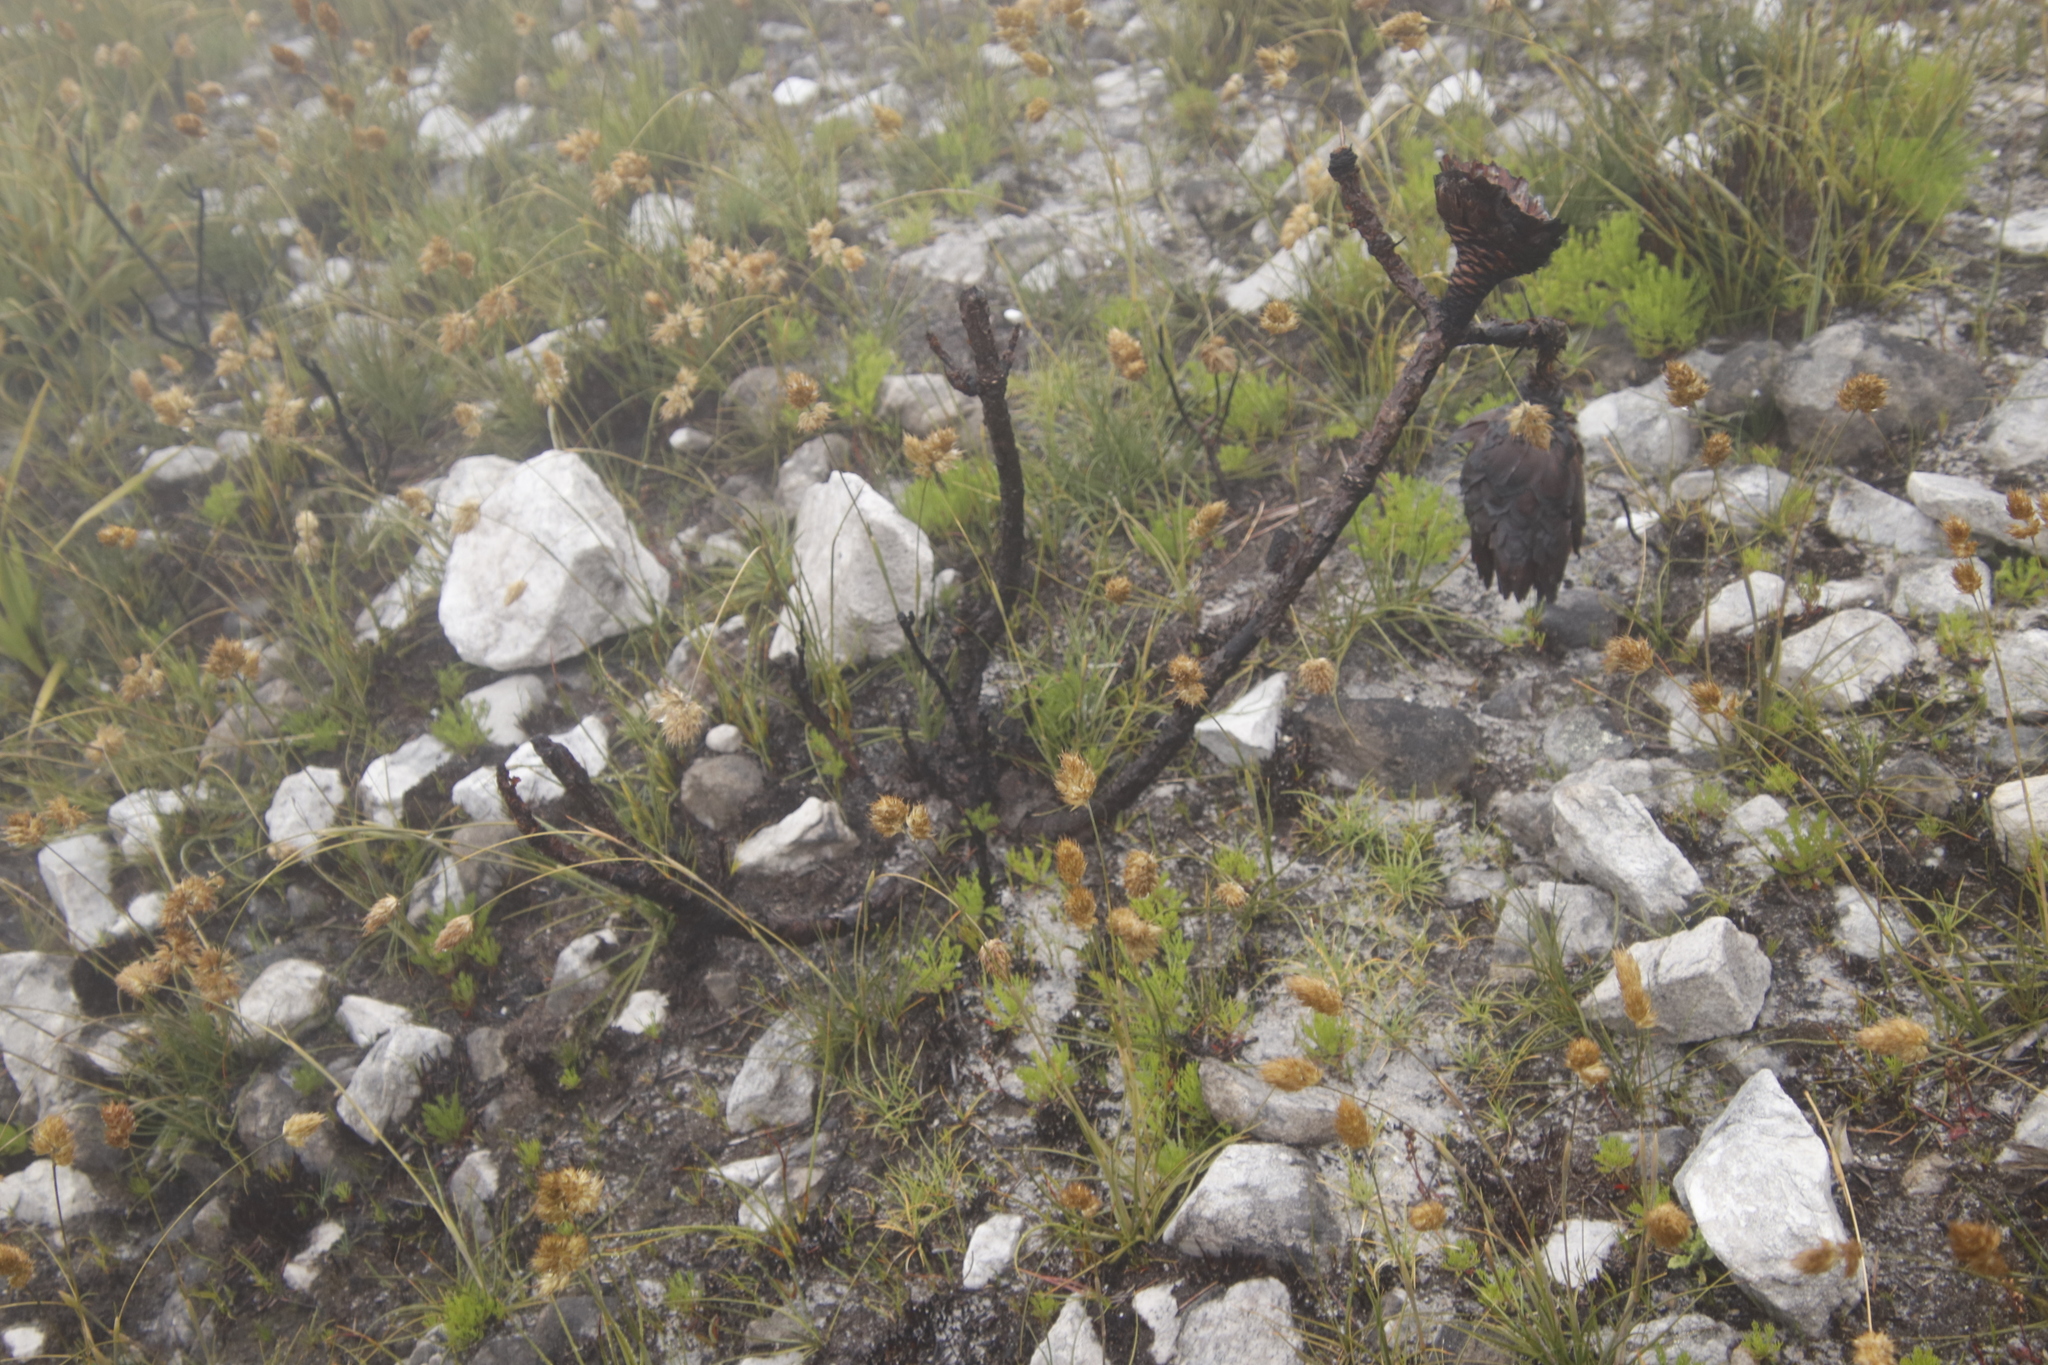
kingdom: Plantae
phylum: Tracheophyta
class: Magnoliopsida
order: Proteales
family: Proteaceae
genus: Protea
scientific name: Protea cynaroides
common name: King protea
